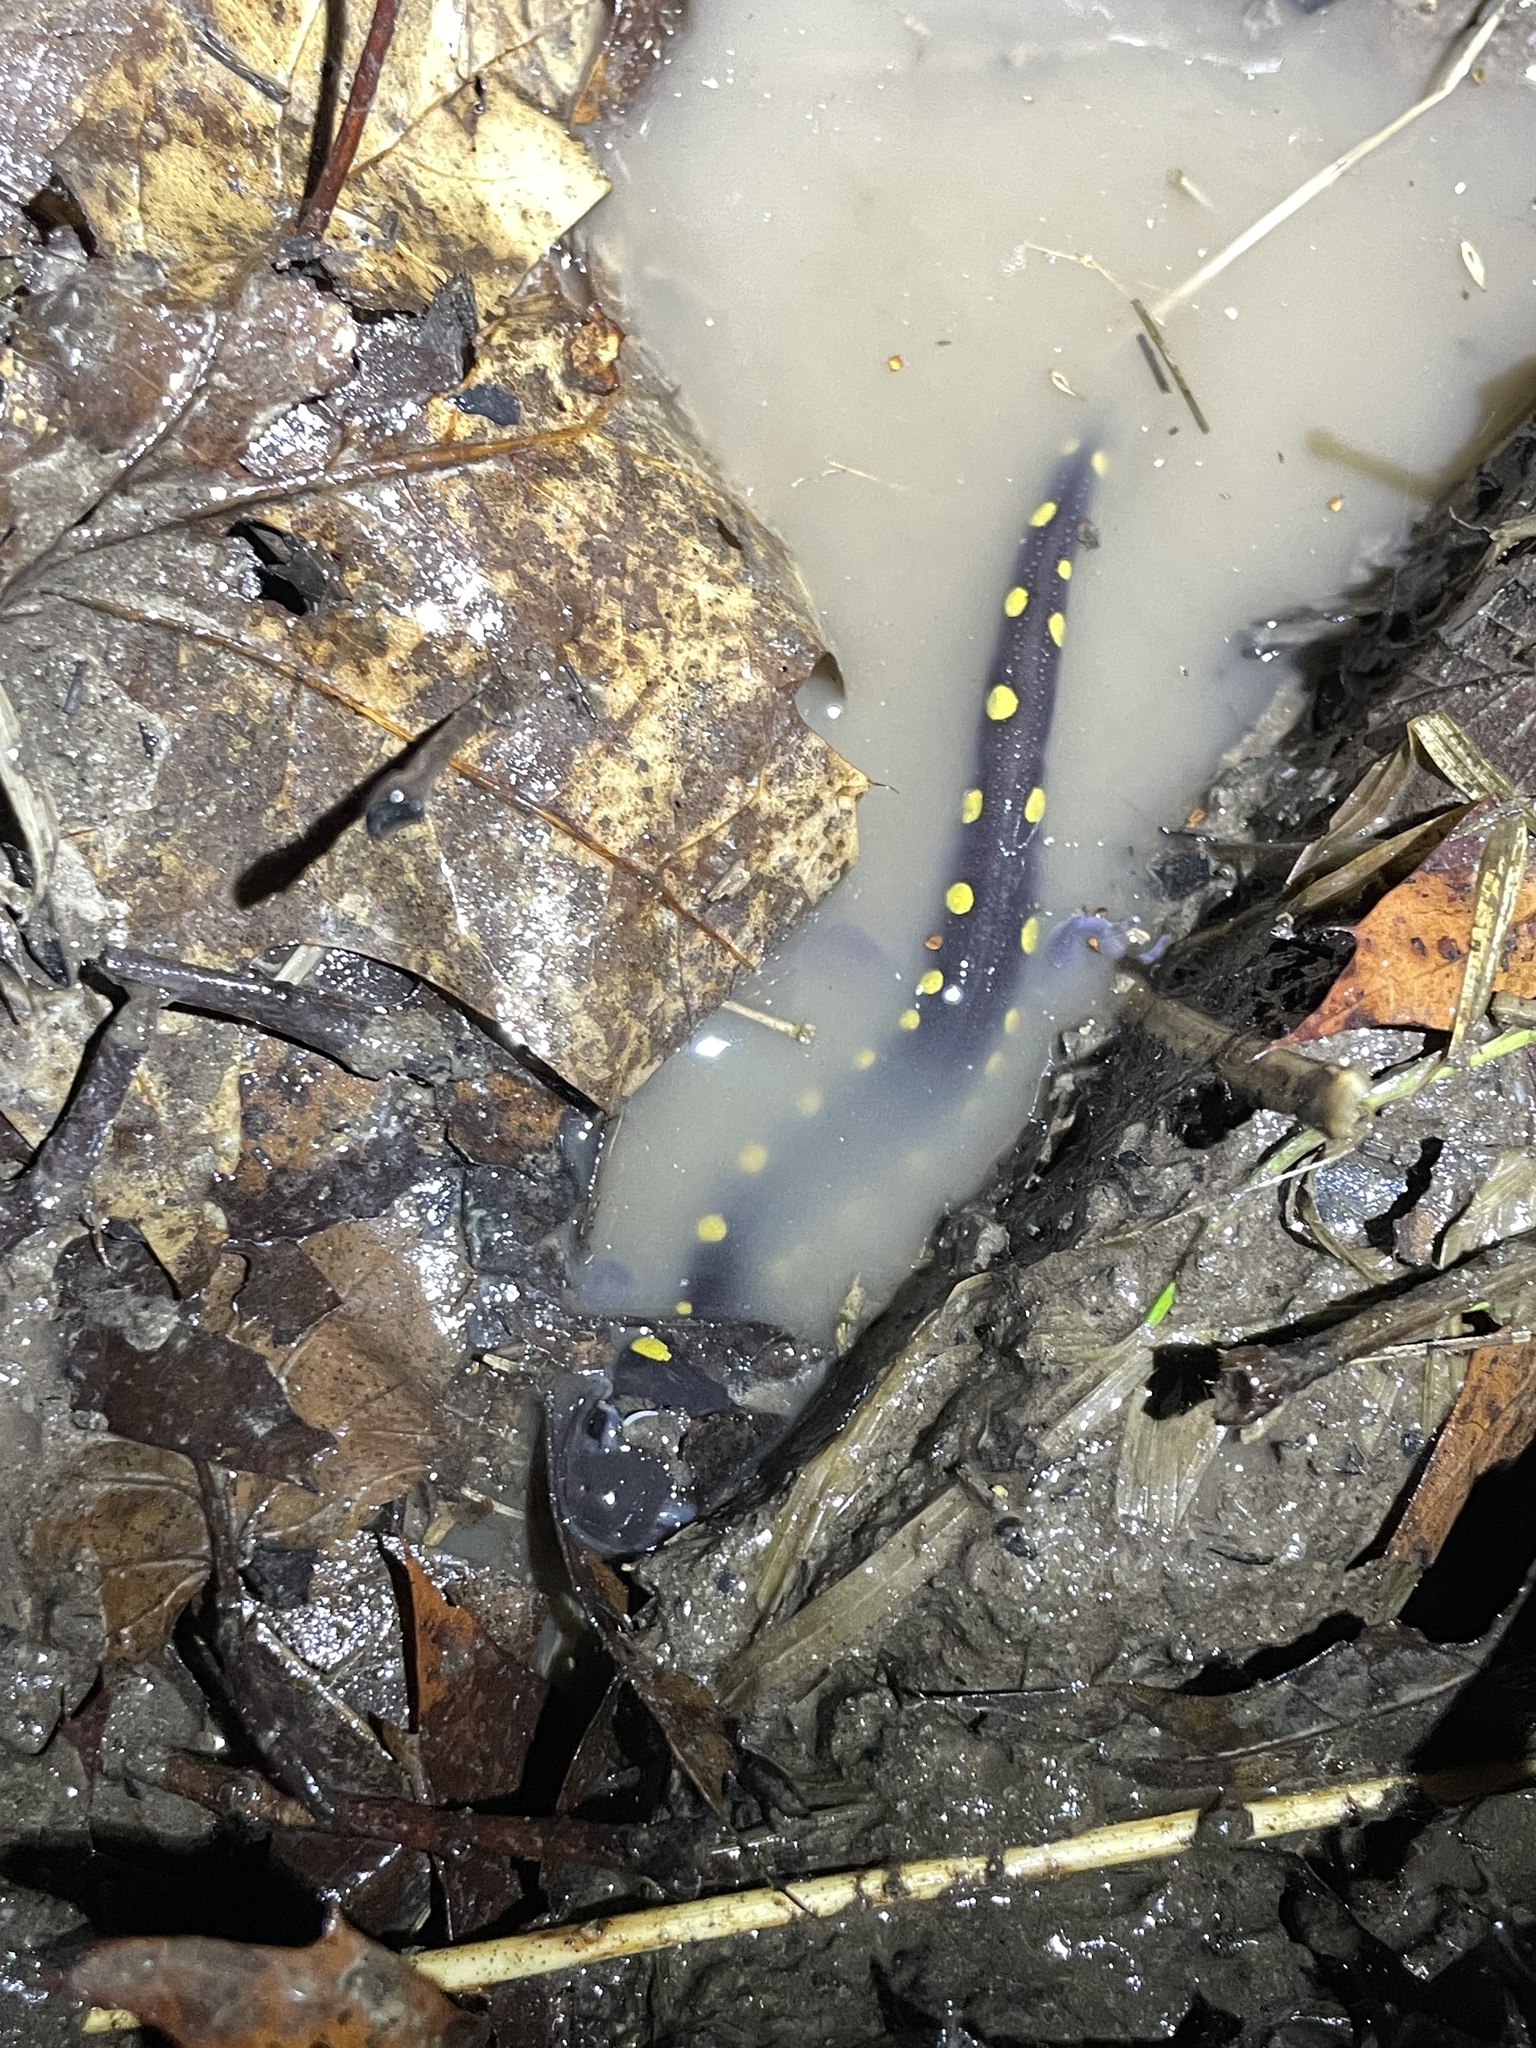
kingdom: Animalia
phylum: Chordata
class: Amphibia
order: Caudata
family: Ambystomatidae
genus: Ambystoma
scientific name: Ambystoma maculatum
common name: Spotted salamander
